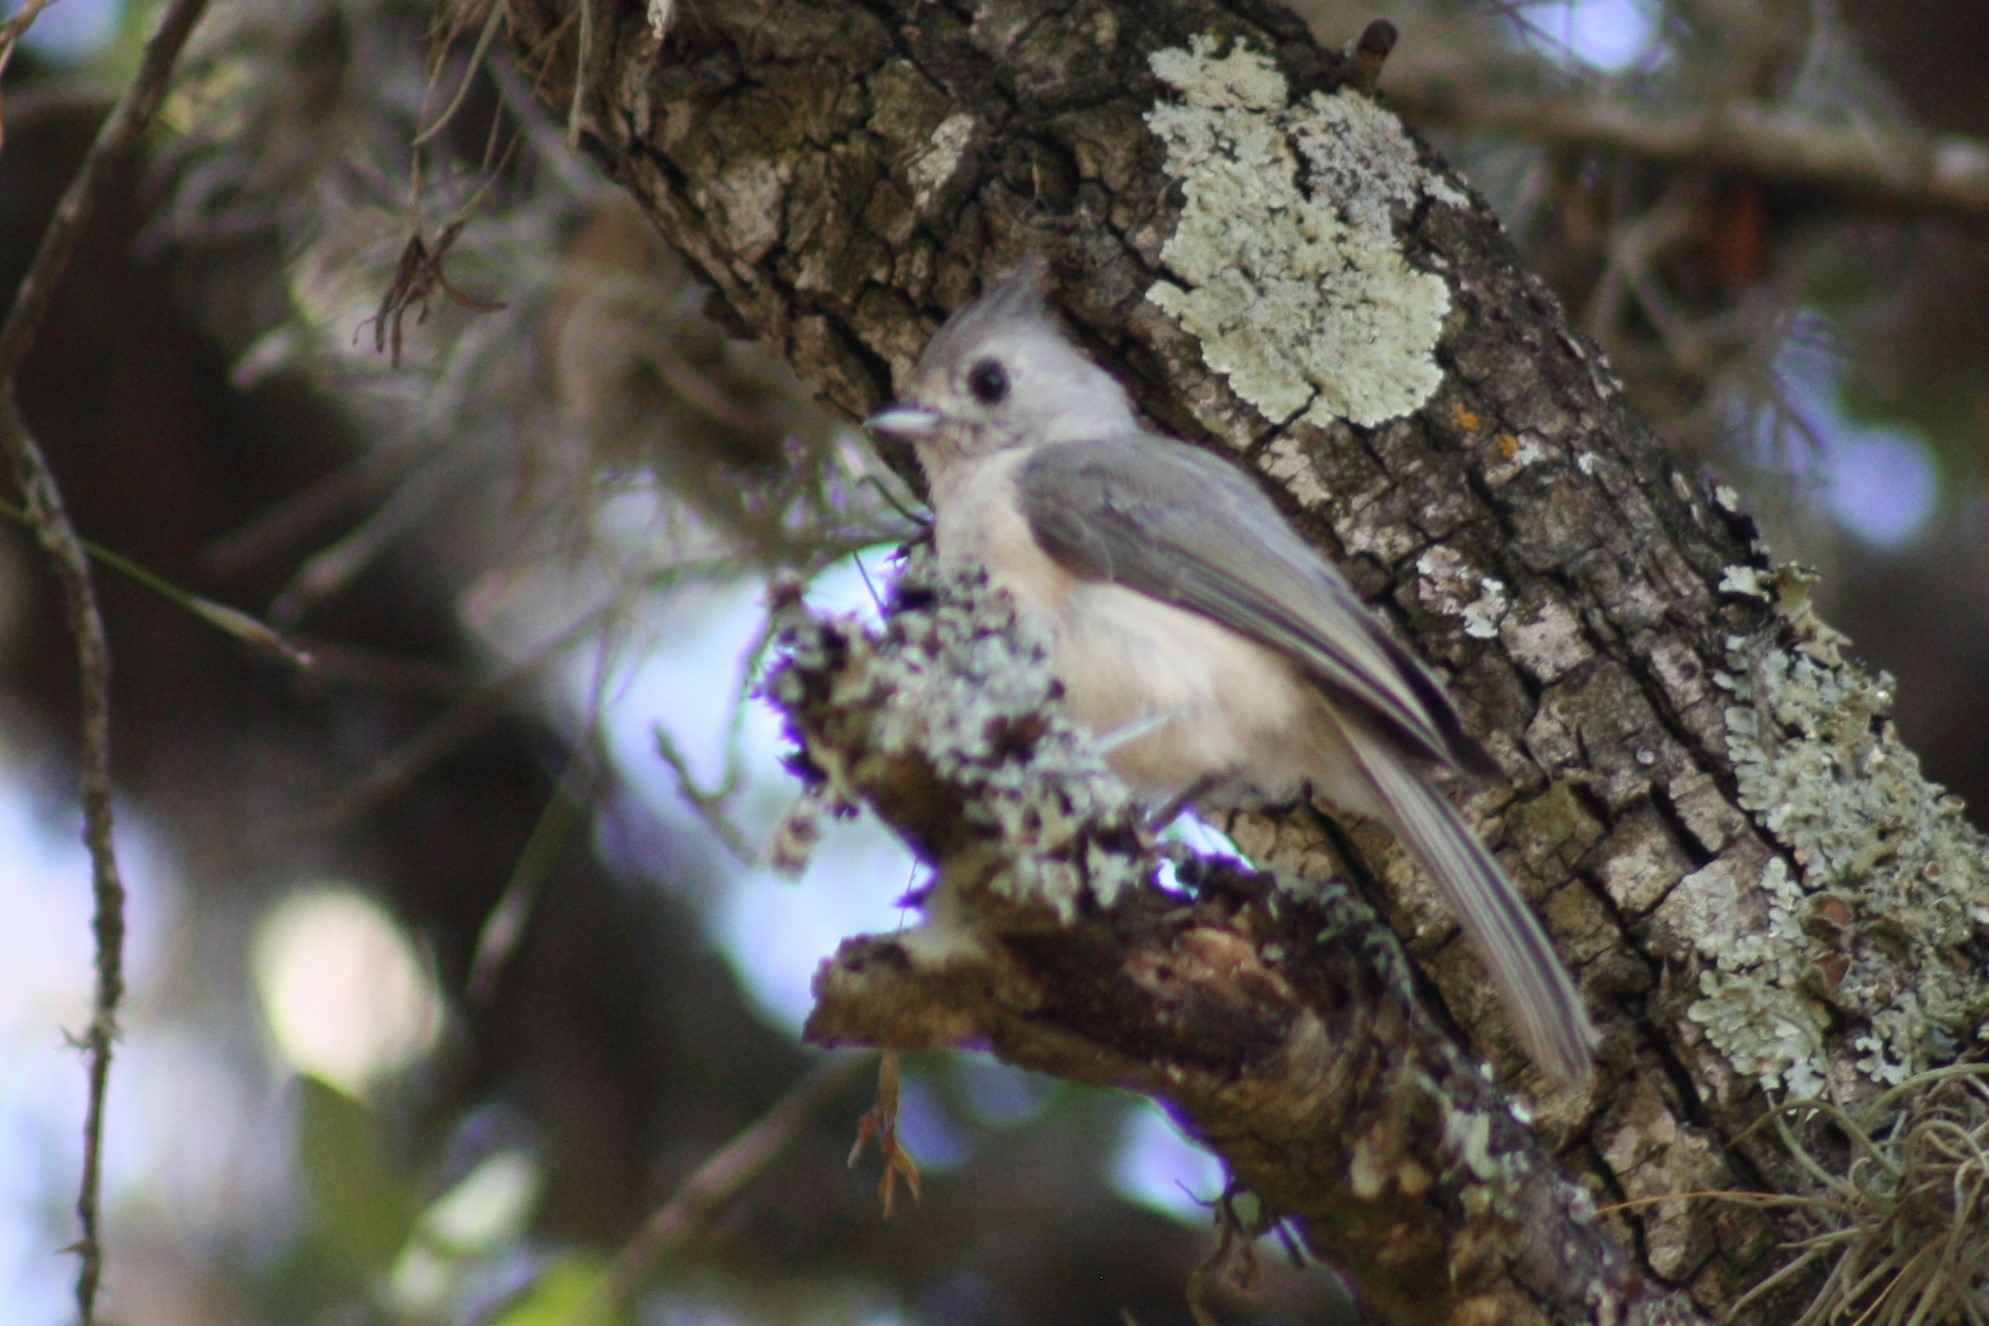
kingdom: Animalia
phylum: Chordata
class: Aves
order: Passeriformes
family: Paridae
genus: Baeolophus
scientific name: Baeolophus atricristatus
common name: Black-crested titmouse
